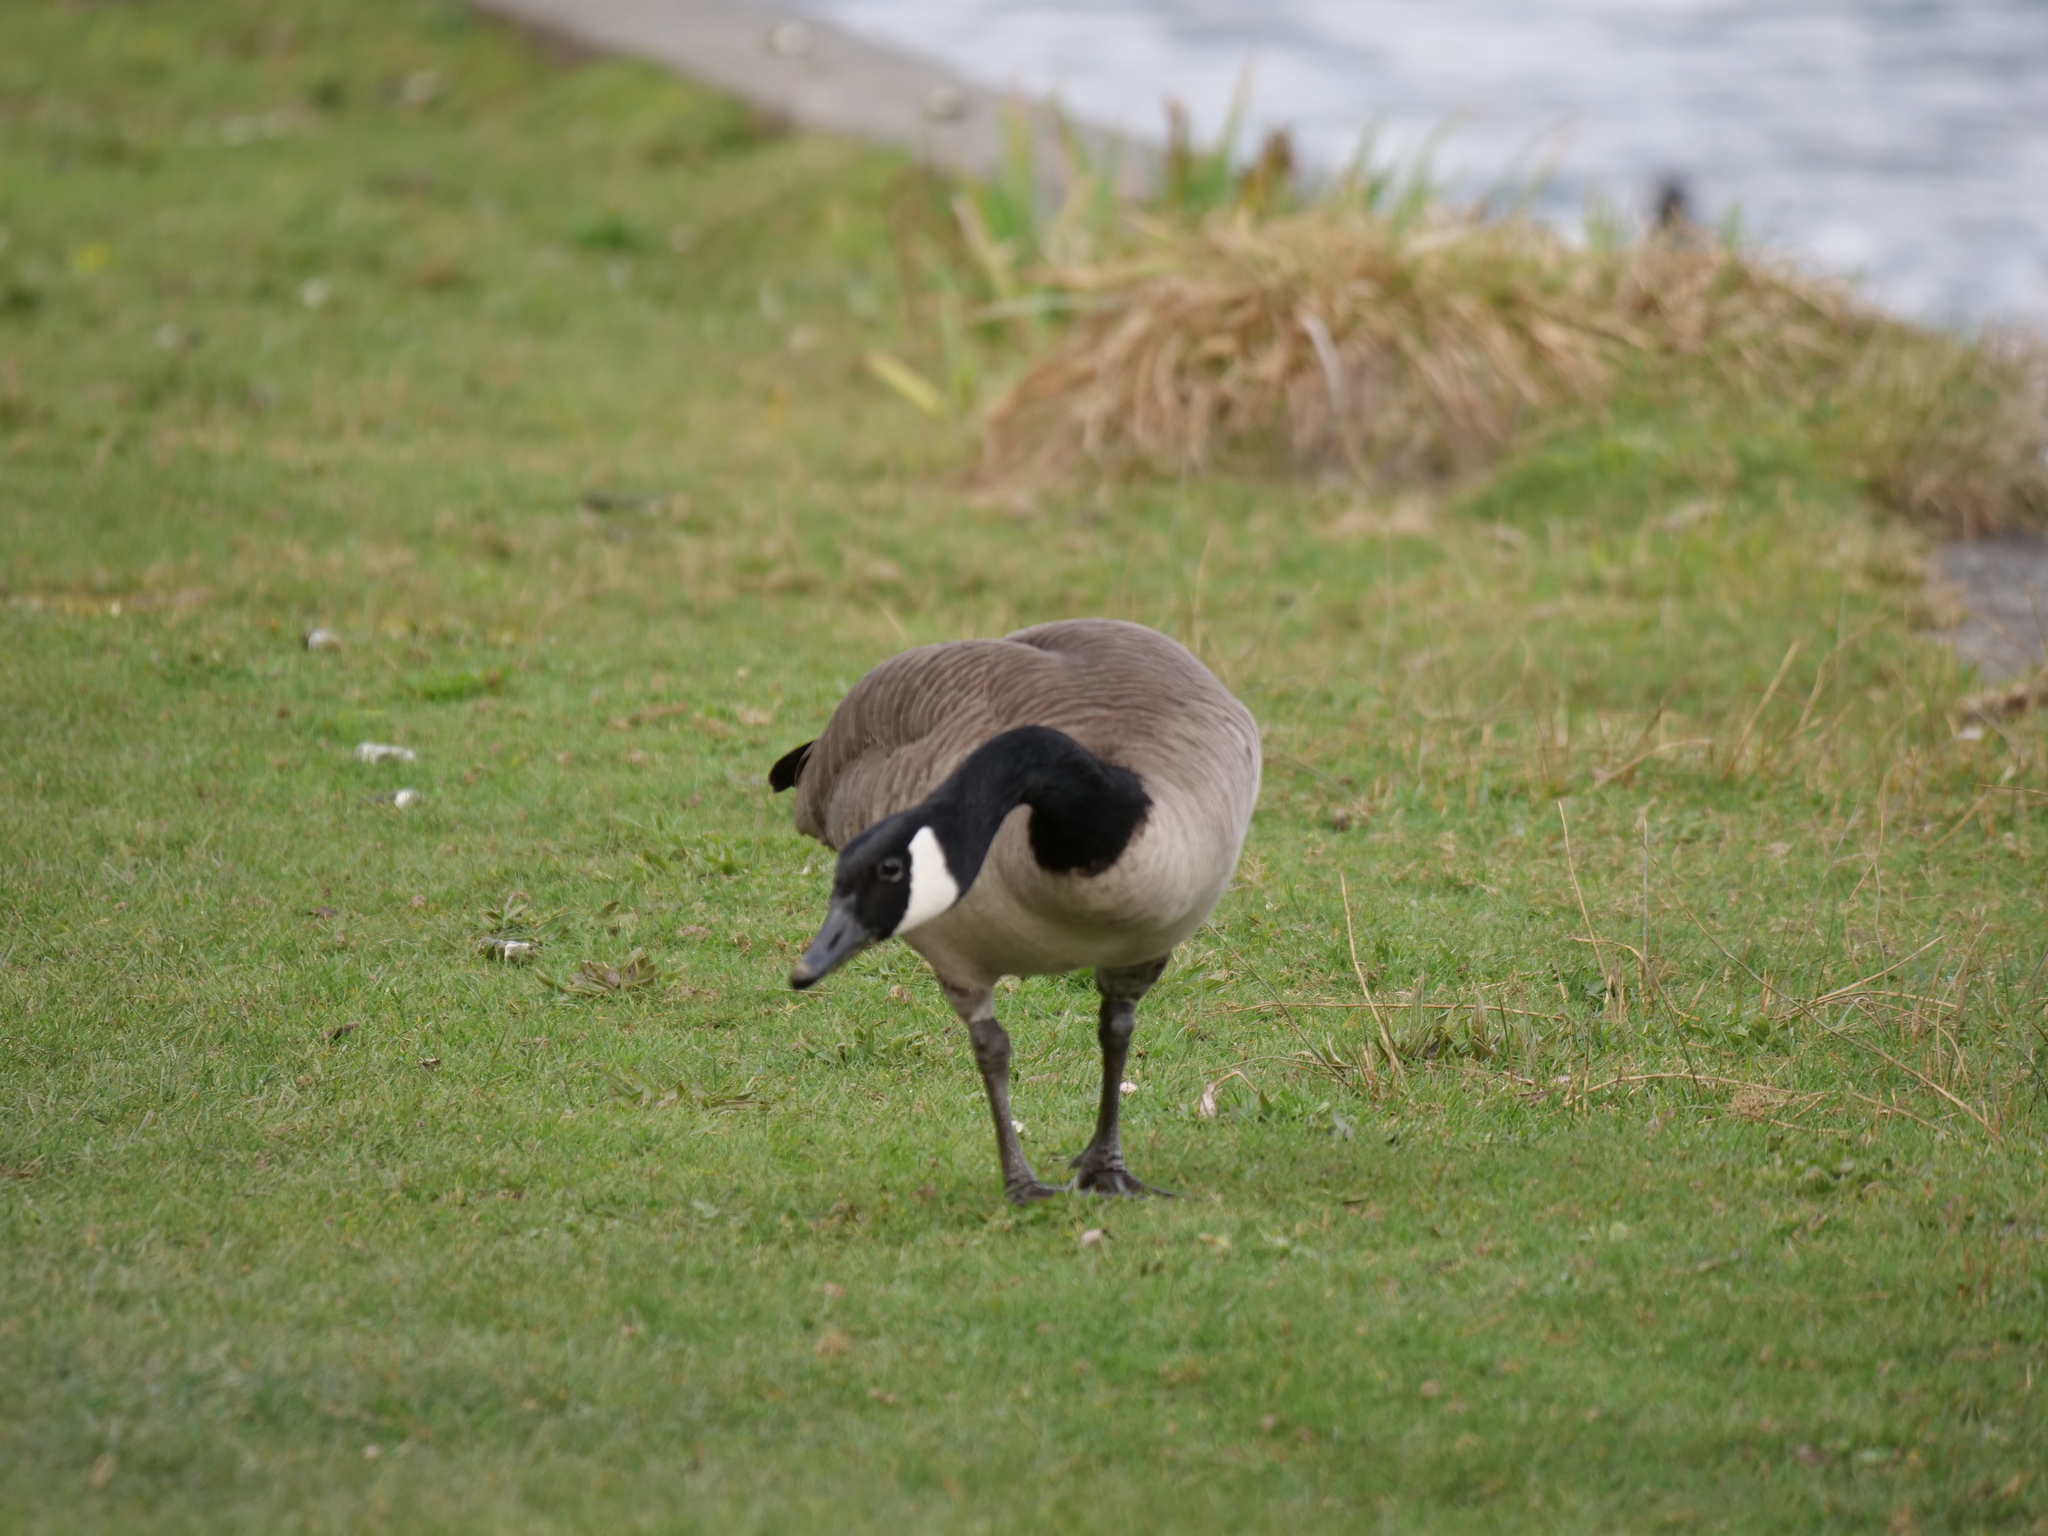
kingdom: Animalia
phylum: Chordata
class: Aves
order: Anseriformes
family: Anatidae
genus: Branta
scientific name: Branta canadensis
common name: Canada goose
